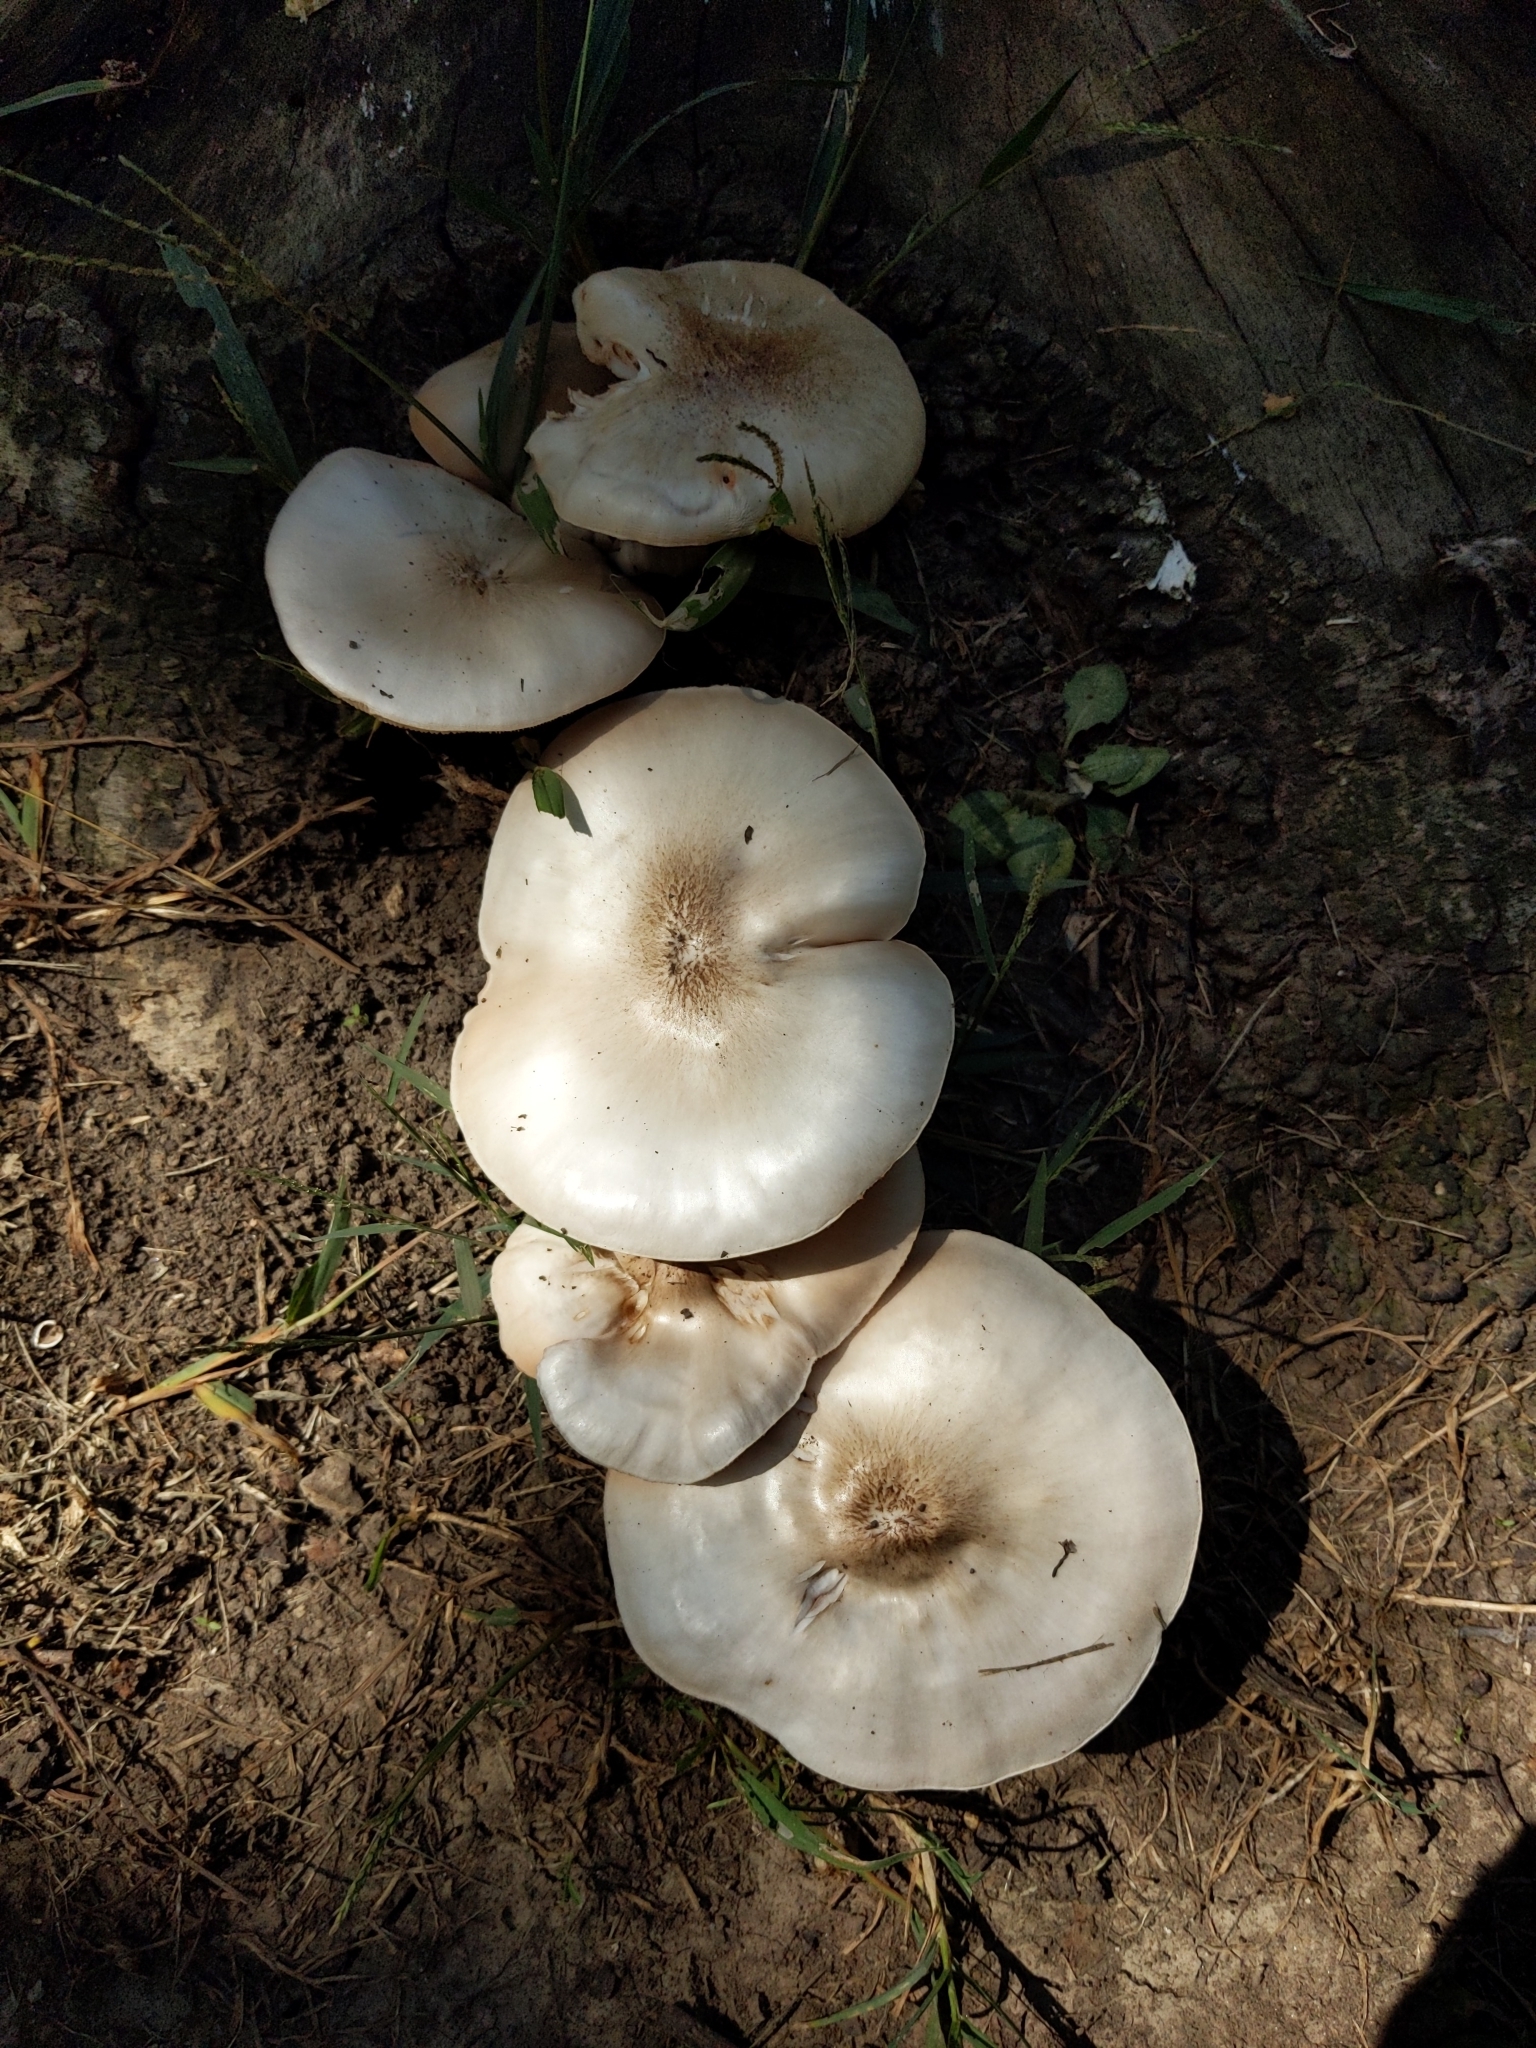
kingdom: Fungi
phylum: Basidiomycota
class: Agaricomycetes
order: Agaricales
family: Pluteaceae
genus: Pluteus
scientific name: Pluteus petasatus
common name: Scaly shield
